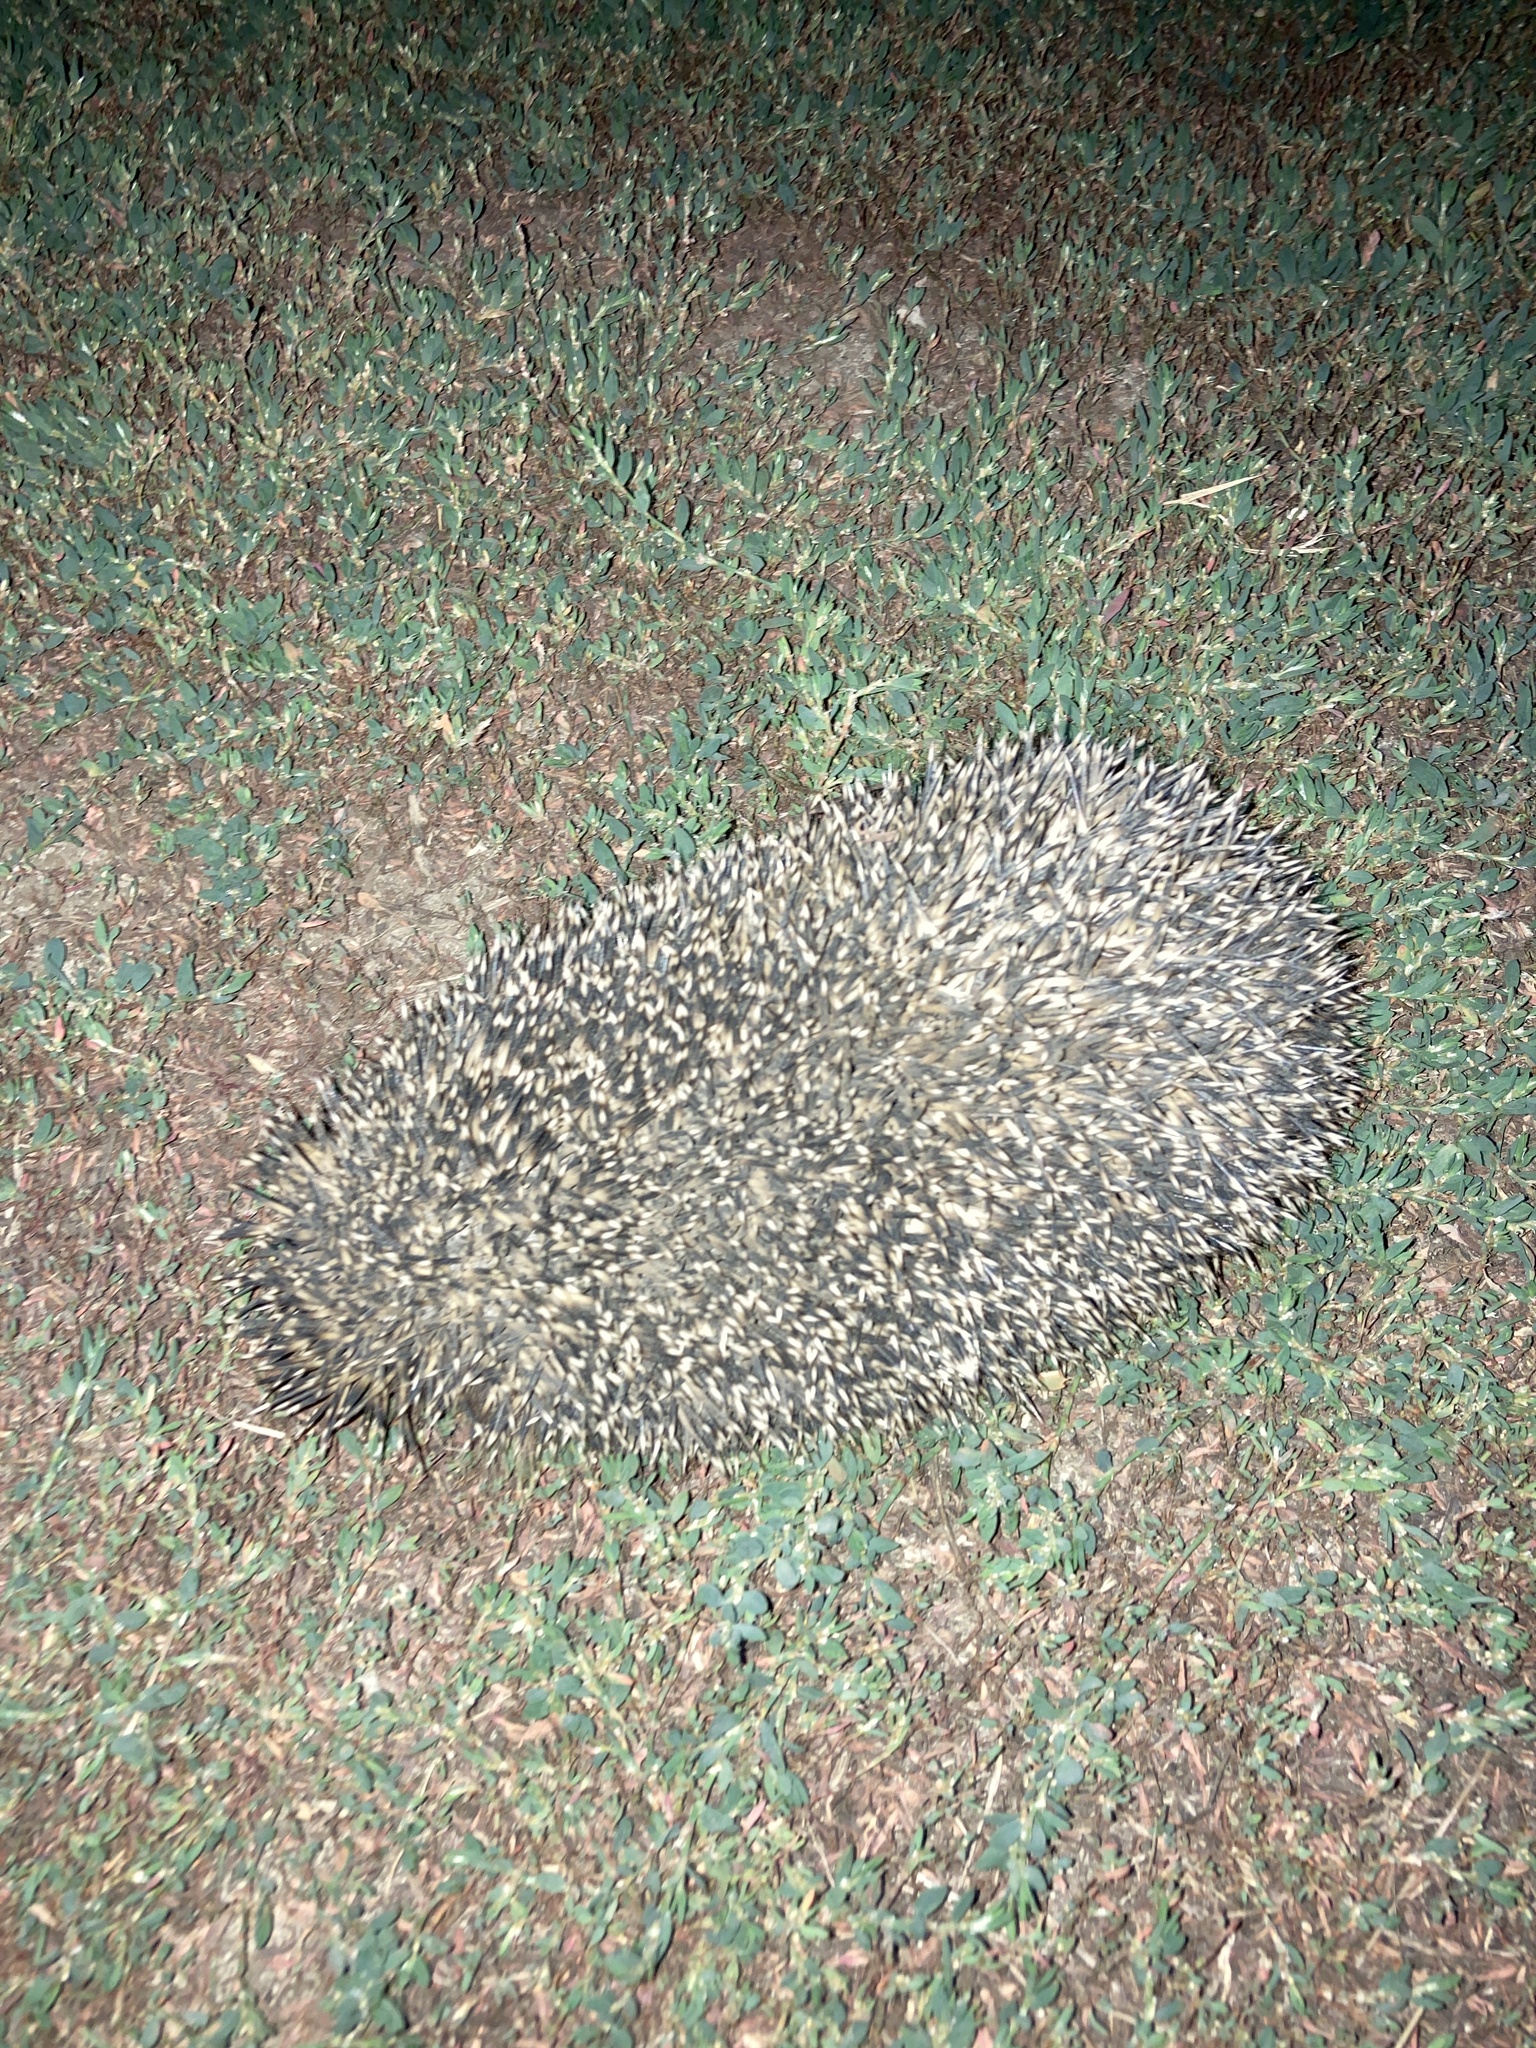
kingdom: Animalia
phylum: Chordata
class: Mammalia
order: Erinaceomorpha
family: Erinaceidae
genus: Erinaceus
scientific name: Erinaceus roumanicus
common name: Northern white-breasted hedgehog
